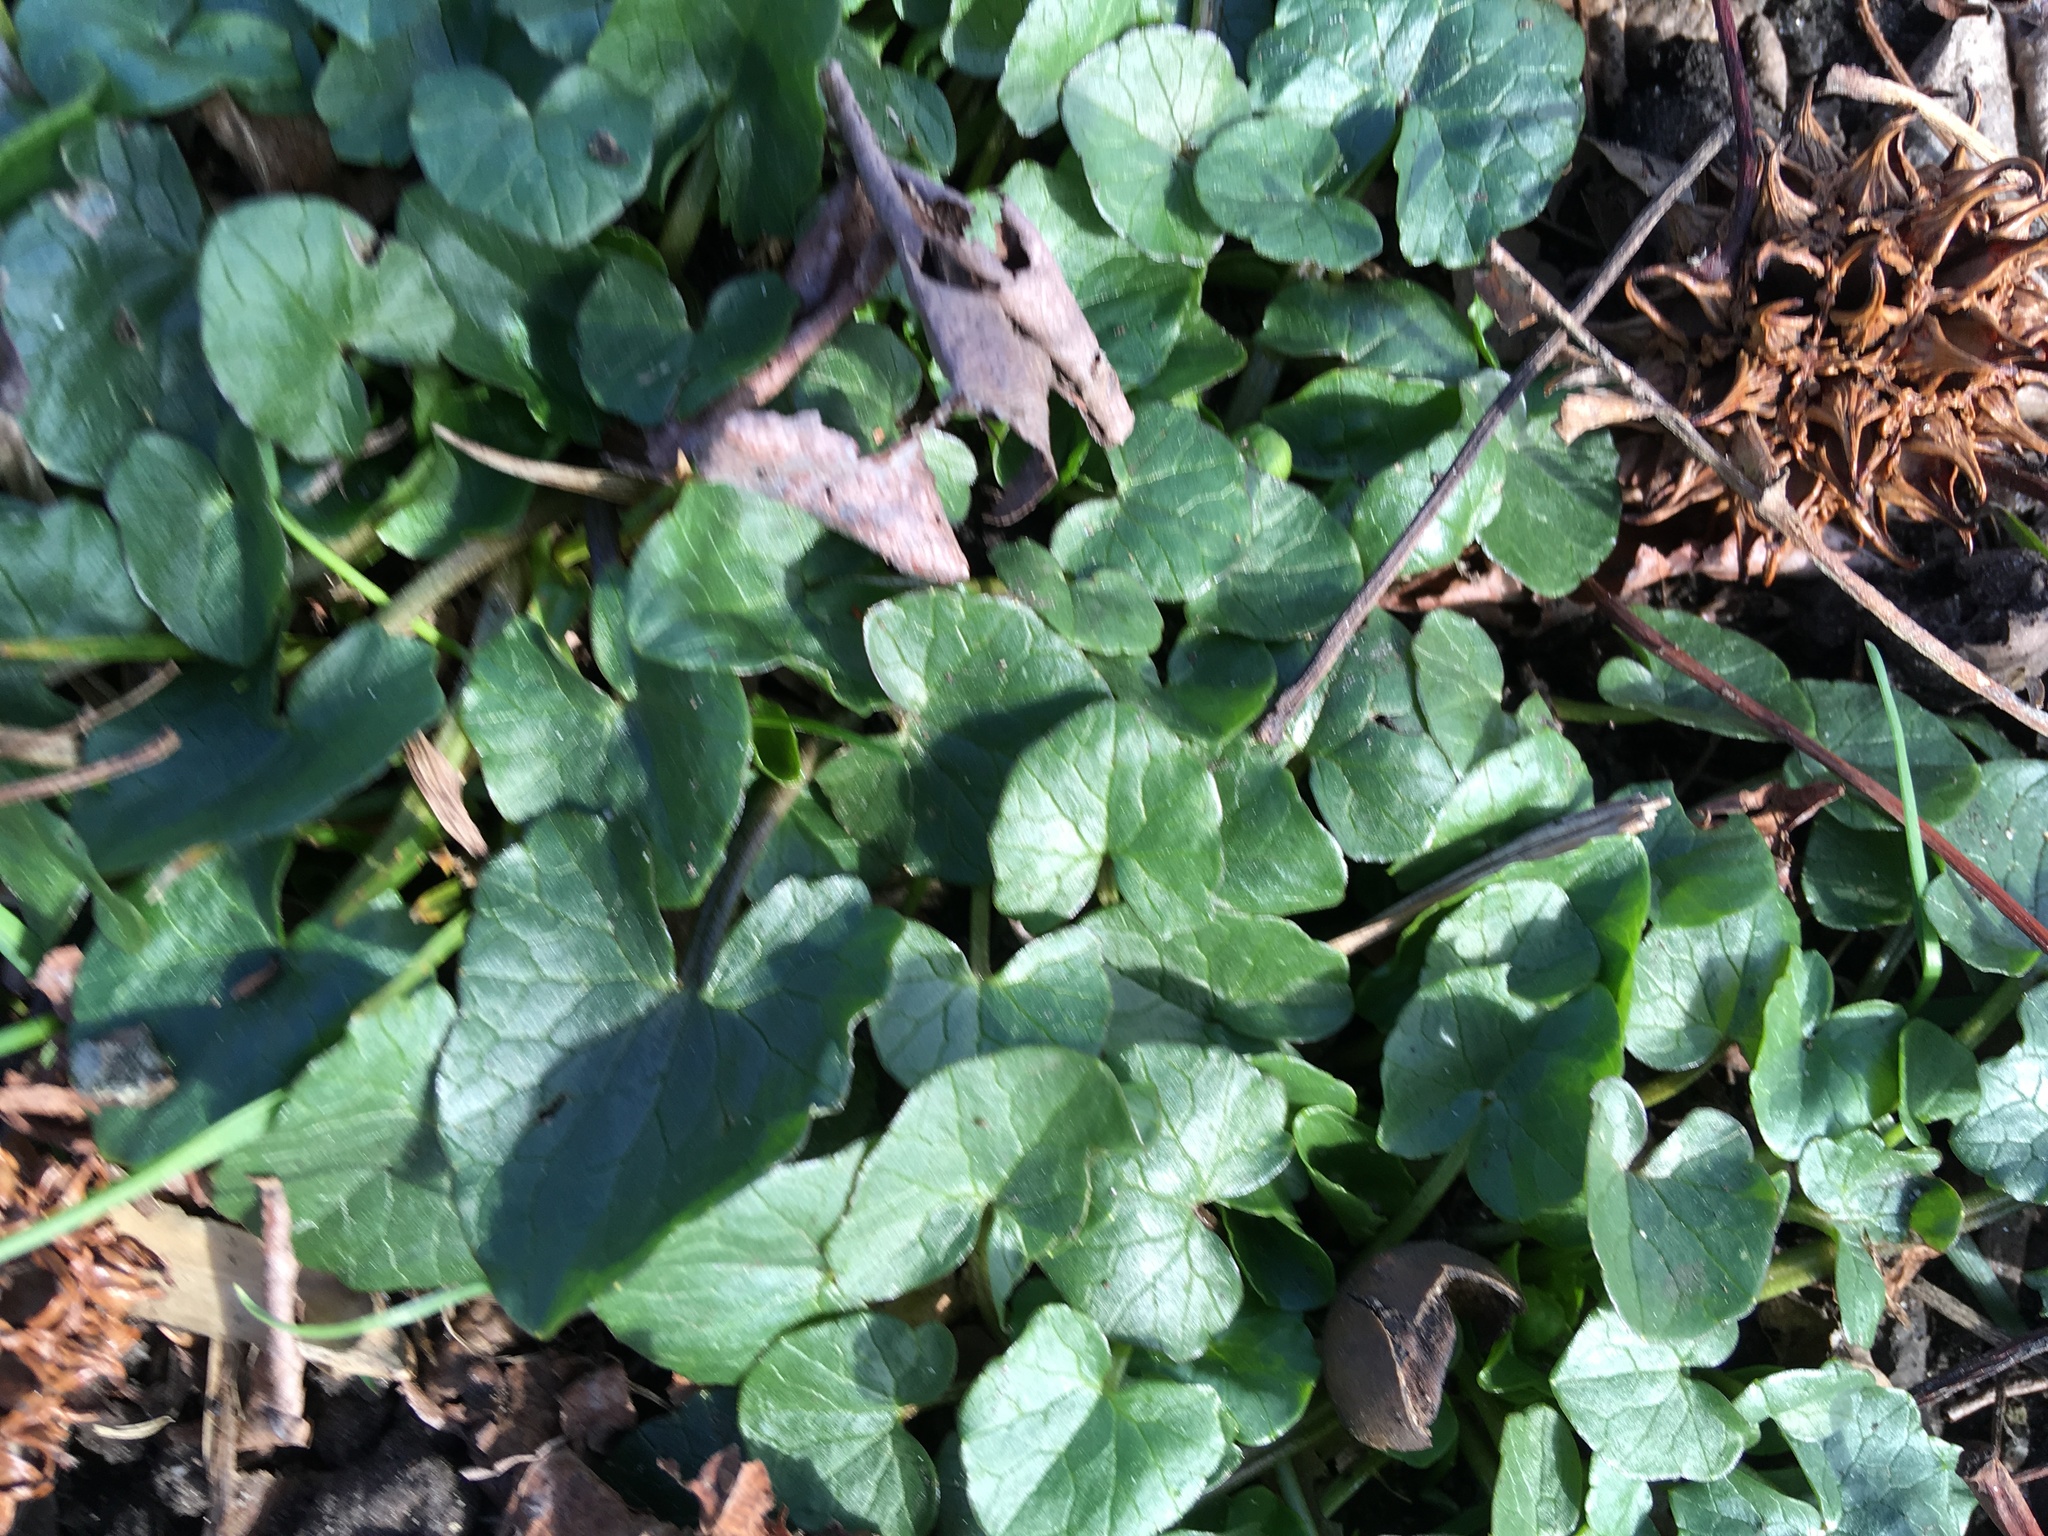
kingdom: Plantae
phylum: Tracheophyta
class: Magnoliopsida
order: Ranunculales
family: Ranunculaceae
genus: Ficaria
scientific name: Ficaria verna
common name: Lesser celandine
